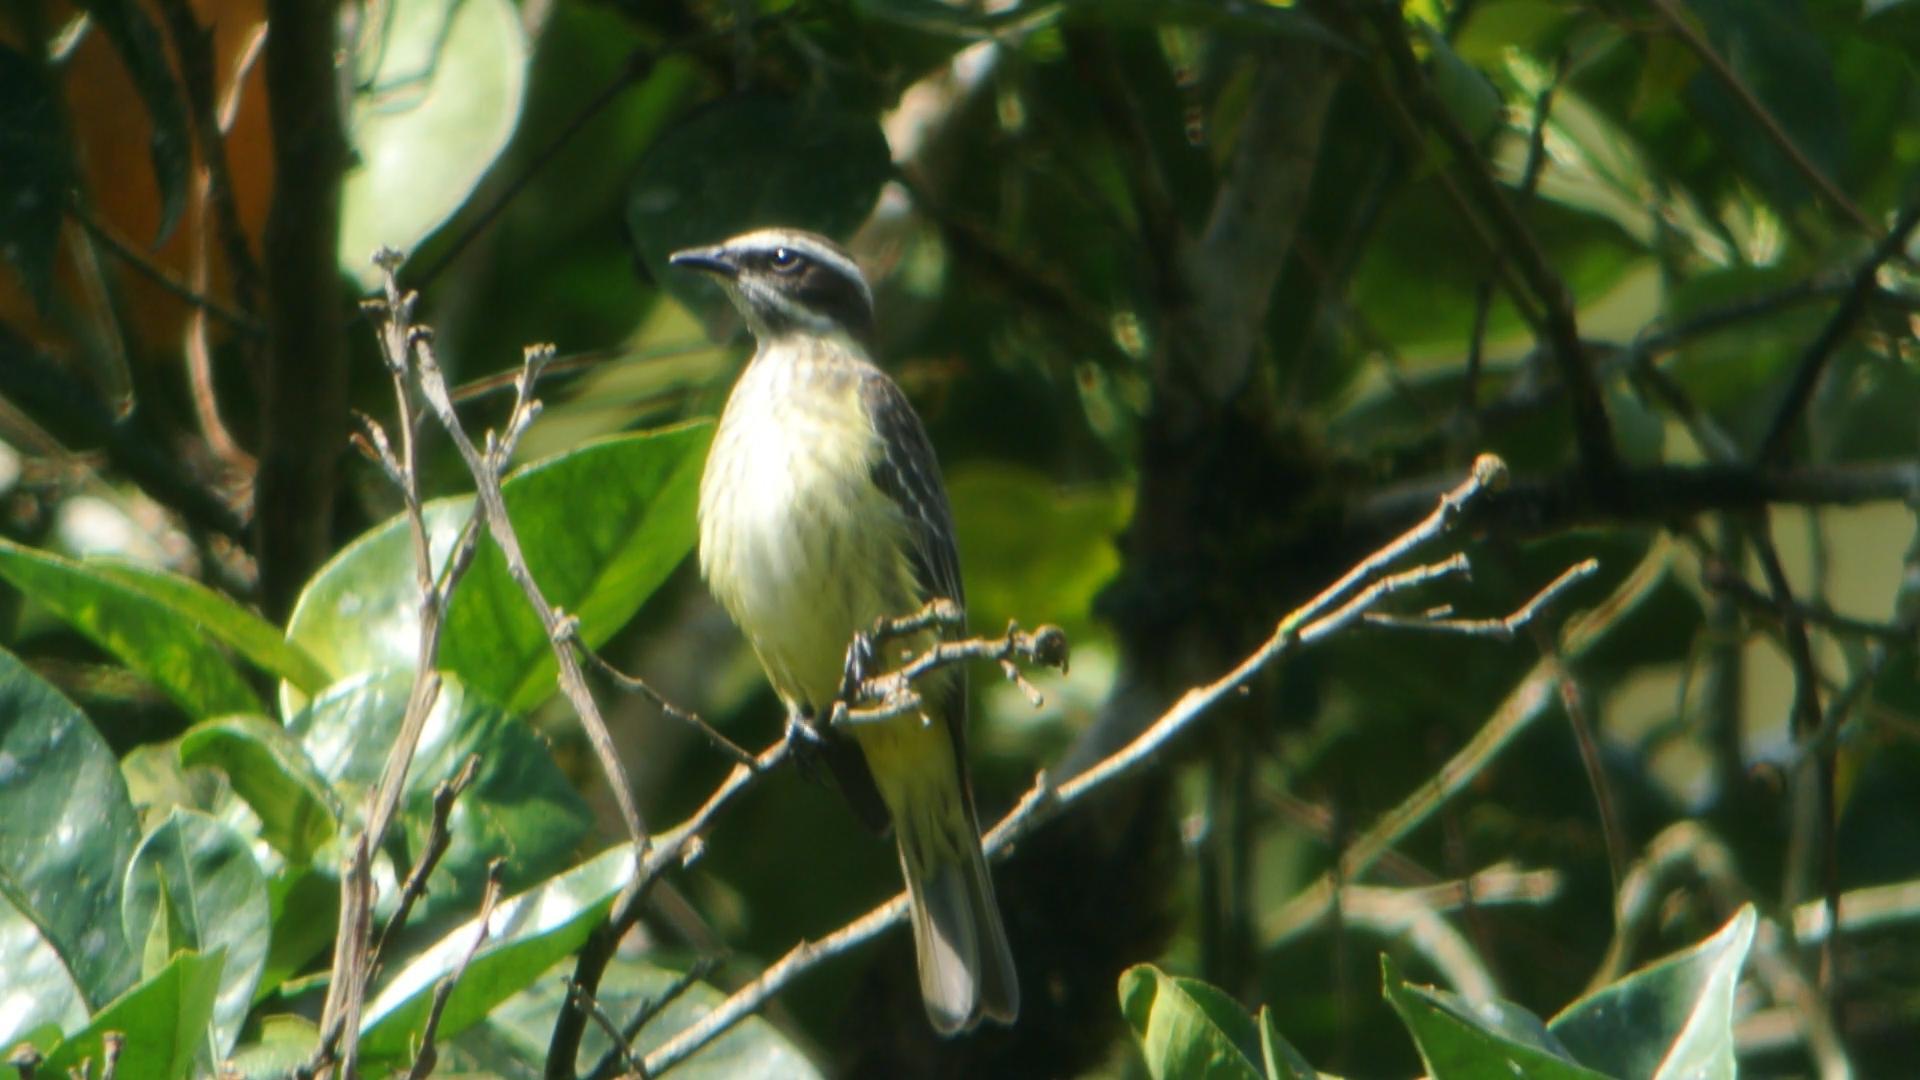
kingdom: Animalia
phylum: Chordata
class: Aves
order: Passeriformes
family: Tyrannidae
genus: Legatus
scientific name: Legatus leucophaius
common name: Piratic flycatcher
